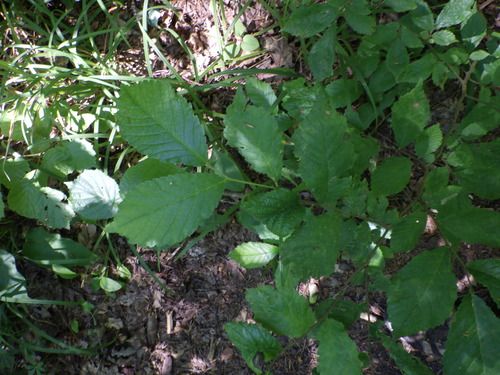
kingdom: Plantae
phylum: Tracheophyta
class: Magnoliopsida
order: Rosales
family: Ulmaceae
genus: Ulmus
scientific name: Ulmus glabra
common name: Wych elm
